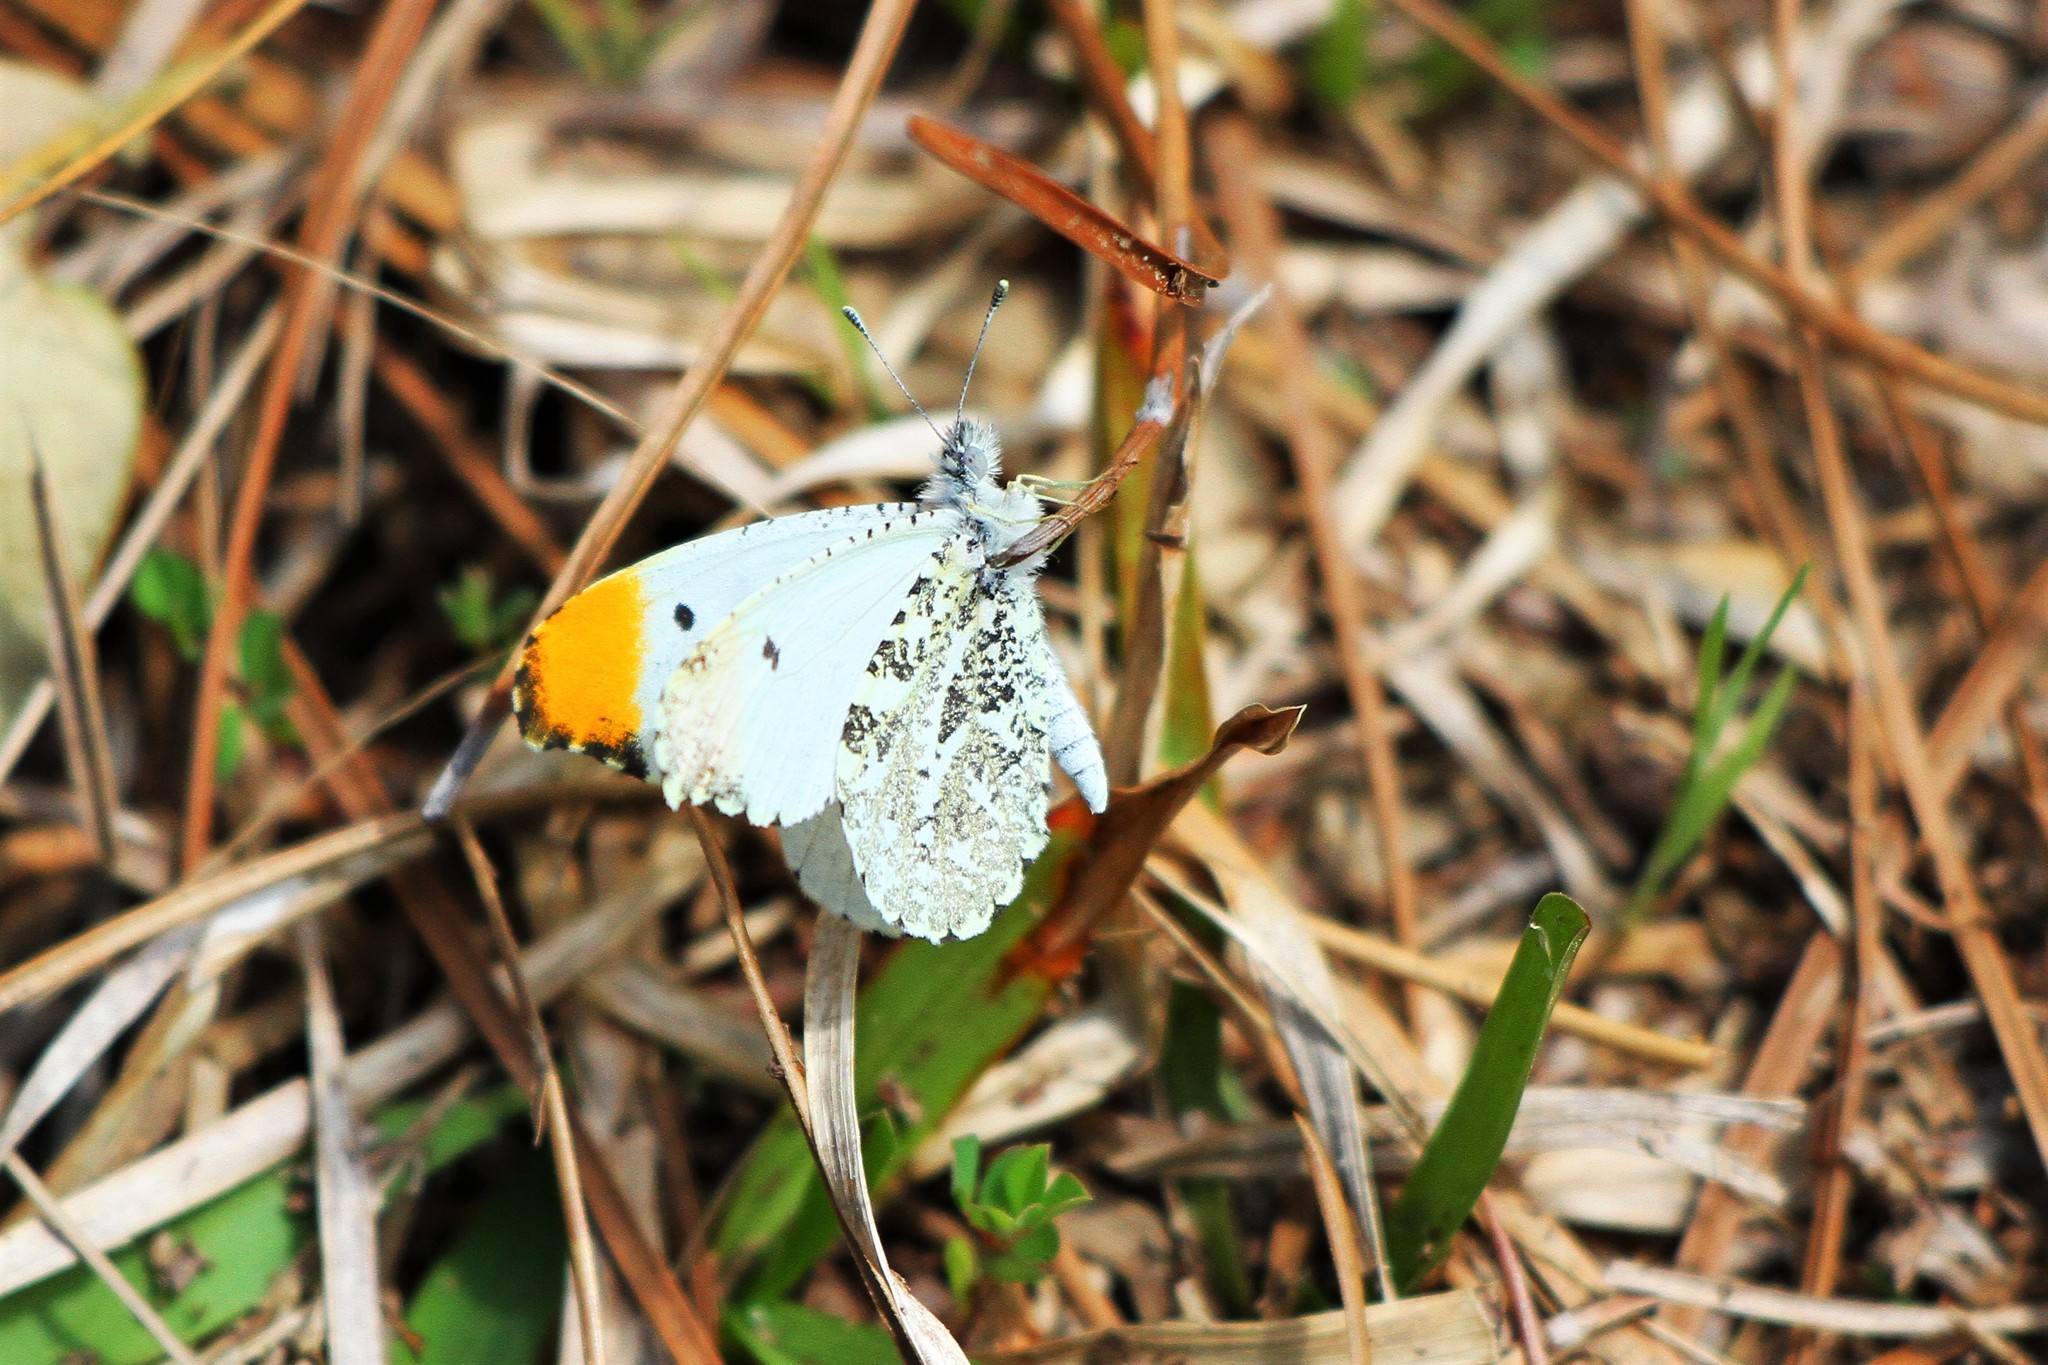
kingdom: Animalia
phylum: Arthropoda
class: Insecta
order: Lepidoptera
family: Pieridae
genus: Anthocharis
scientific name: Anthocharis midea
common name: Falcate orangetip
